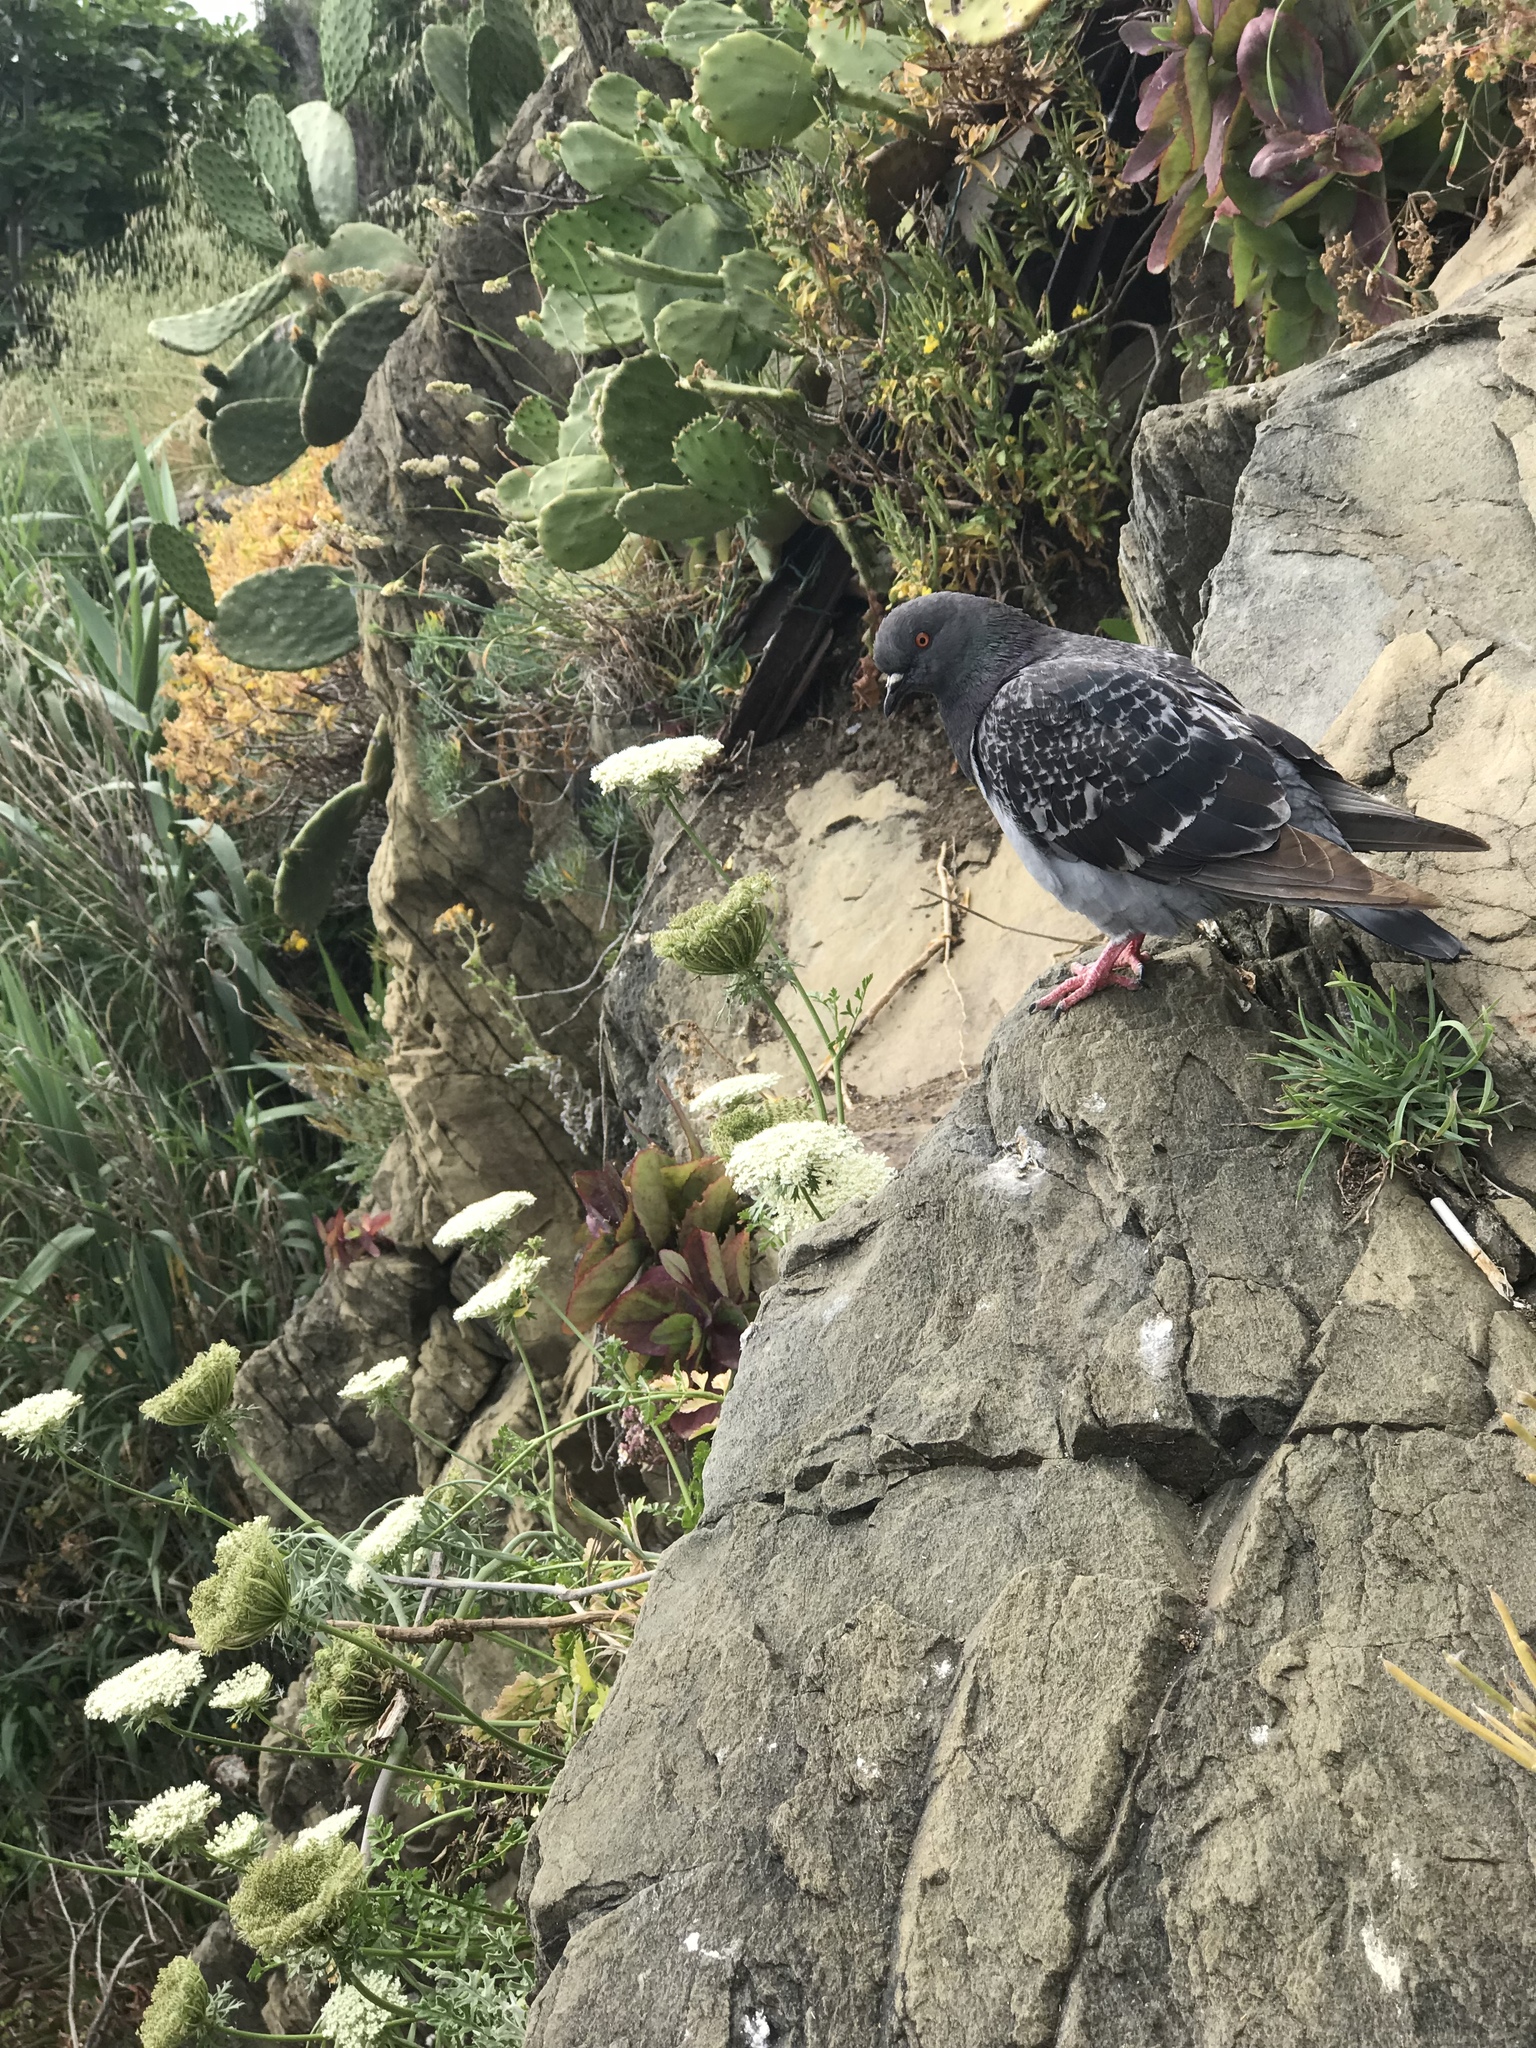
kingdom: Animalia
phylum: Chordata
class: Aves
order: Columbiformes
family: Columbidae
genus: Columba
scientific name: Columba livia
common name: Rock pigeon
